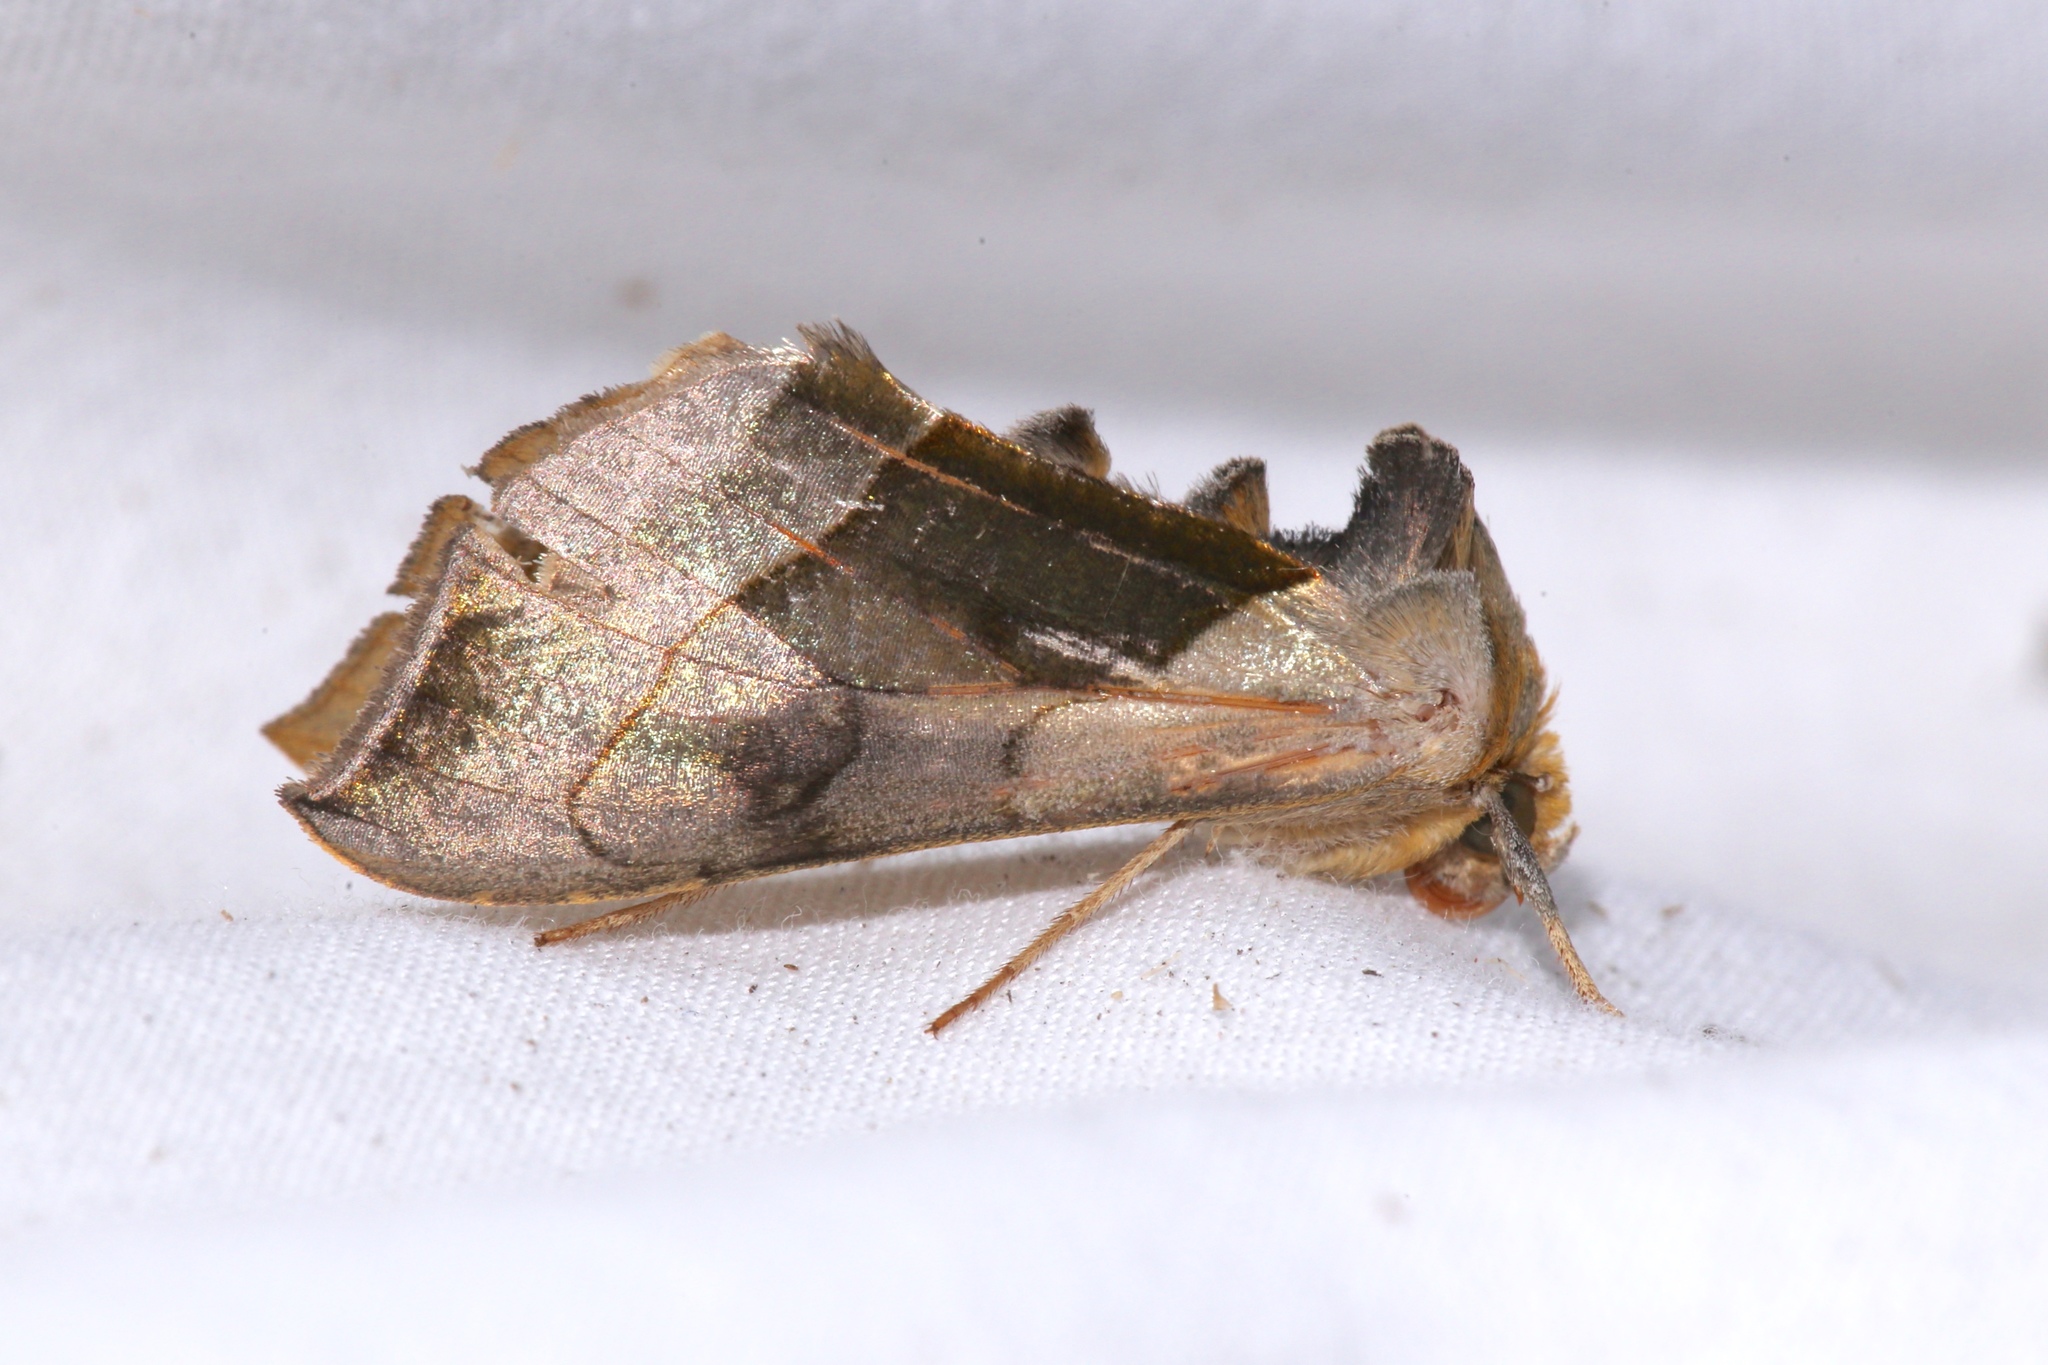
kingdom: Animalia
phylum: Arthropoda
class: Insecta
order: Lepidoptera
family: Noctuidae
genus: Diachrysia
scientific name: Diachrysia balluca
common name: Green-patched looper moth
